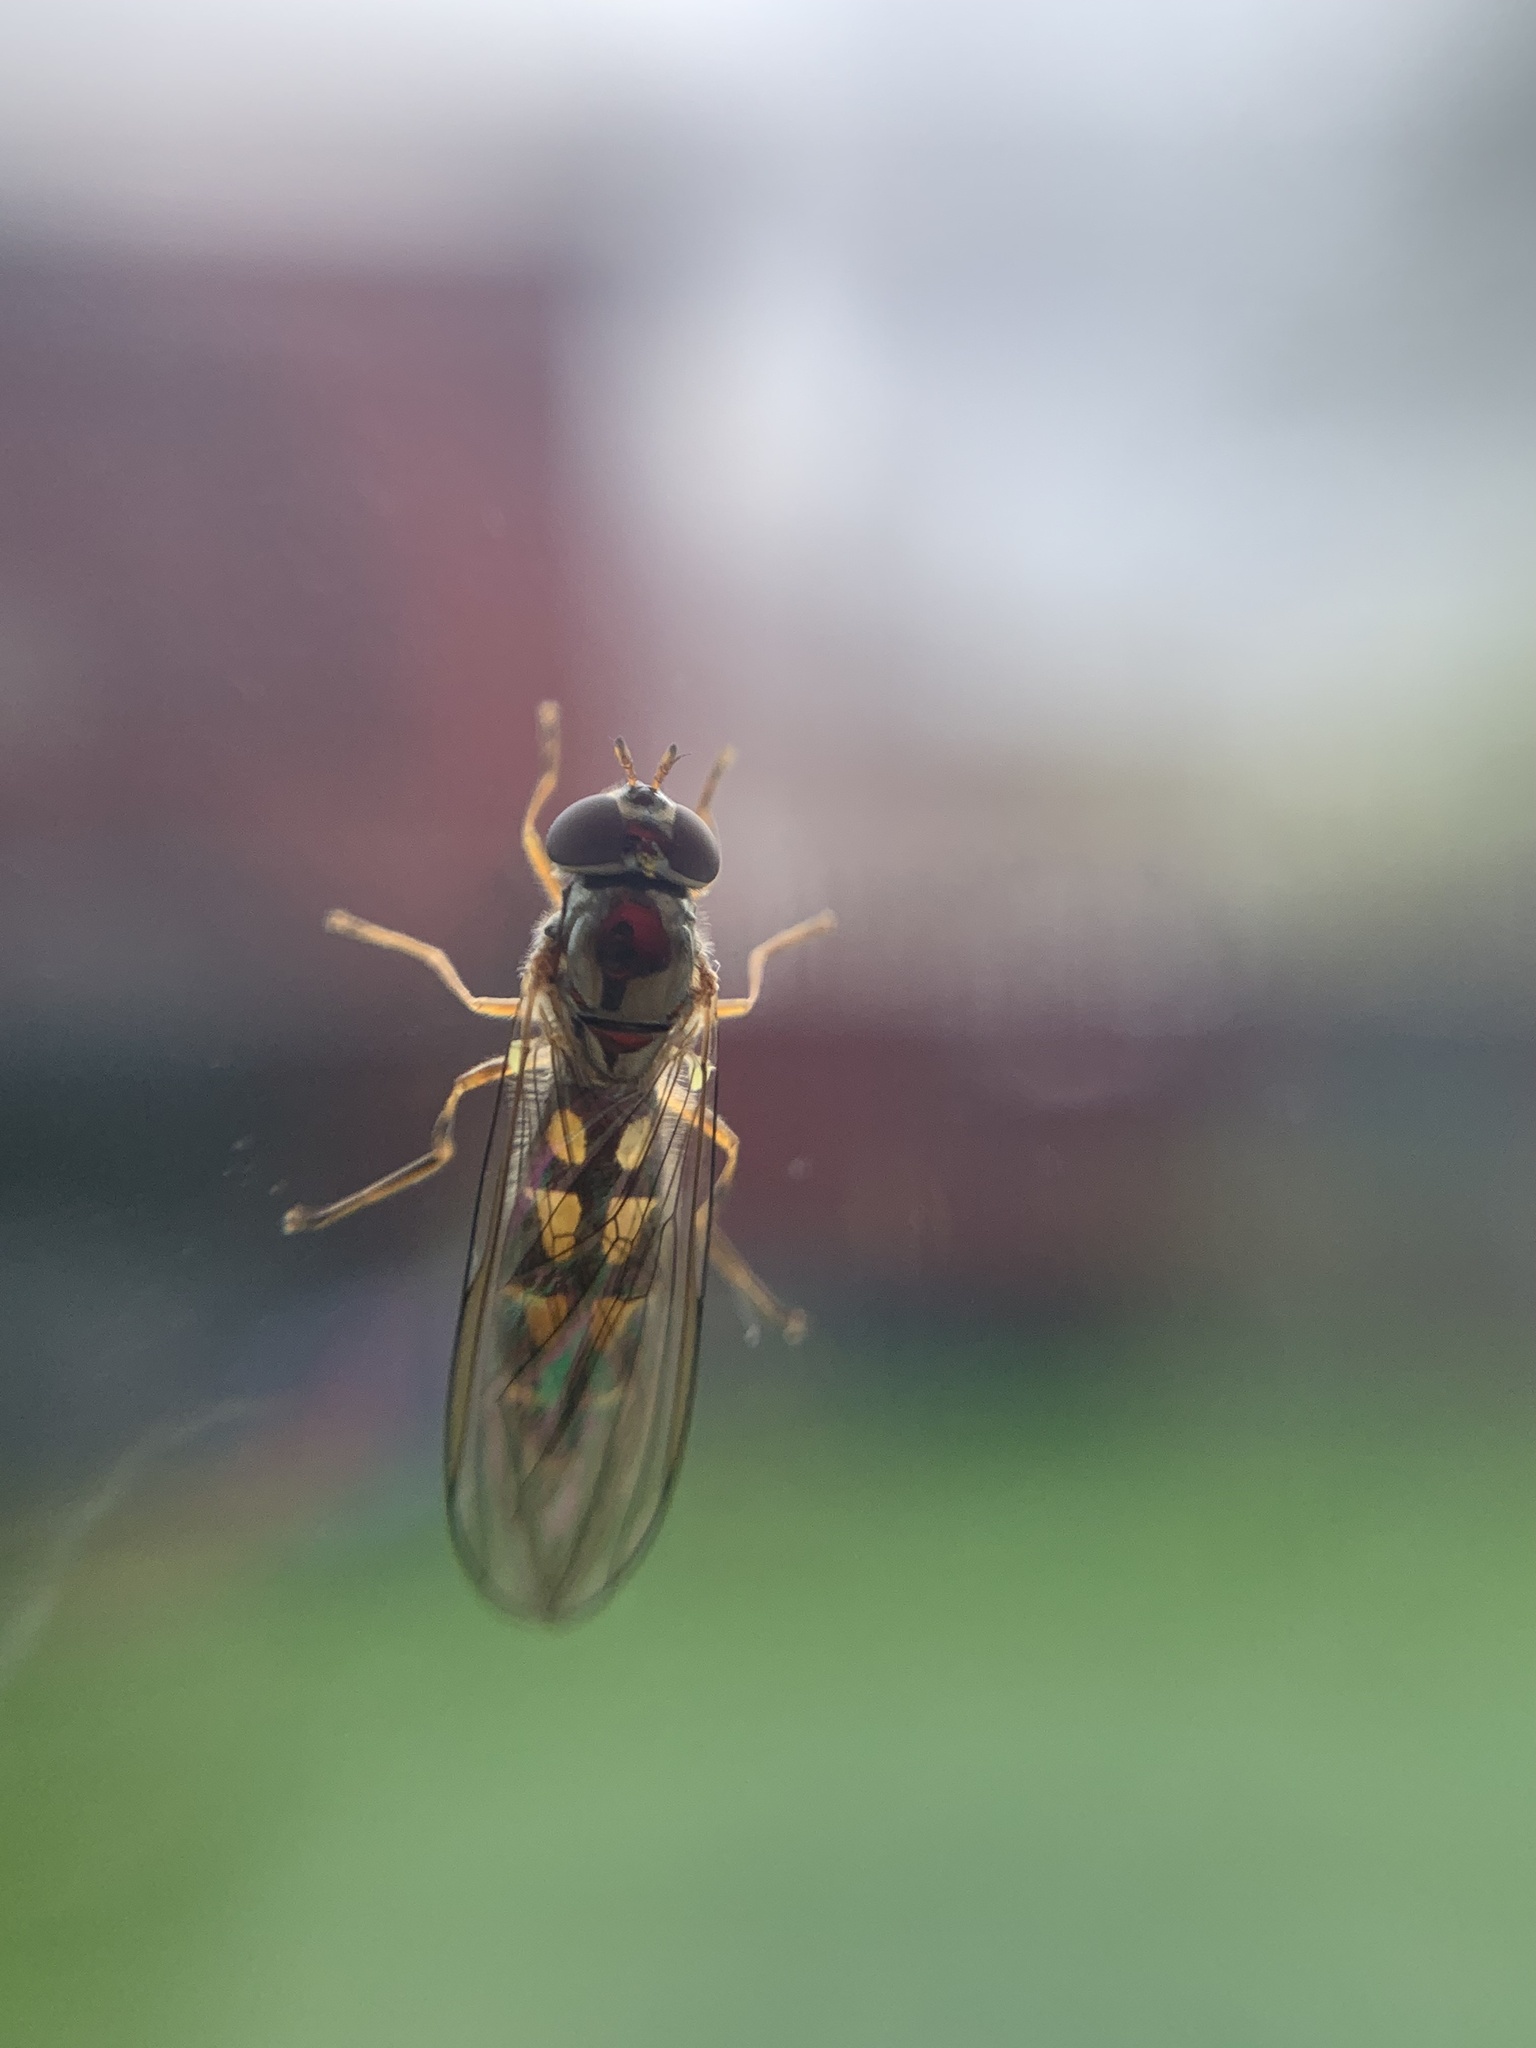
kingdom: Animalia
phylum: Arthropoda
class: Insecta
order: Diptera
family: Syrphidae
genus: Melanostoma
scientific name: Melanostoma scalare
